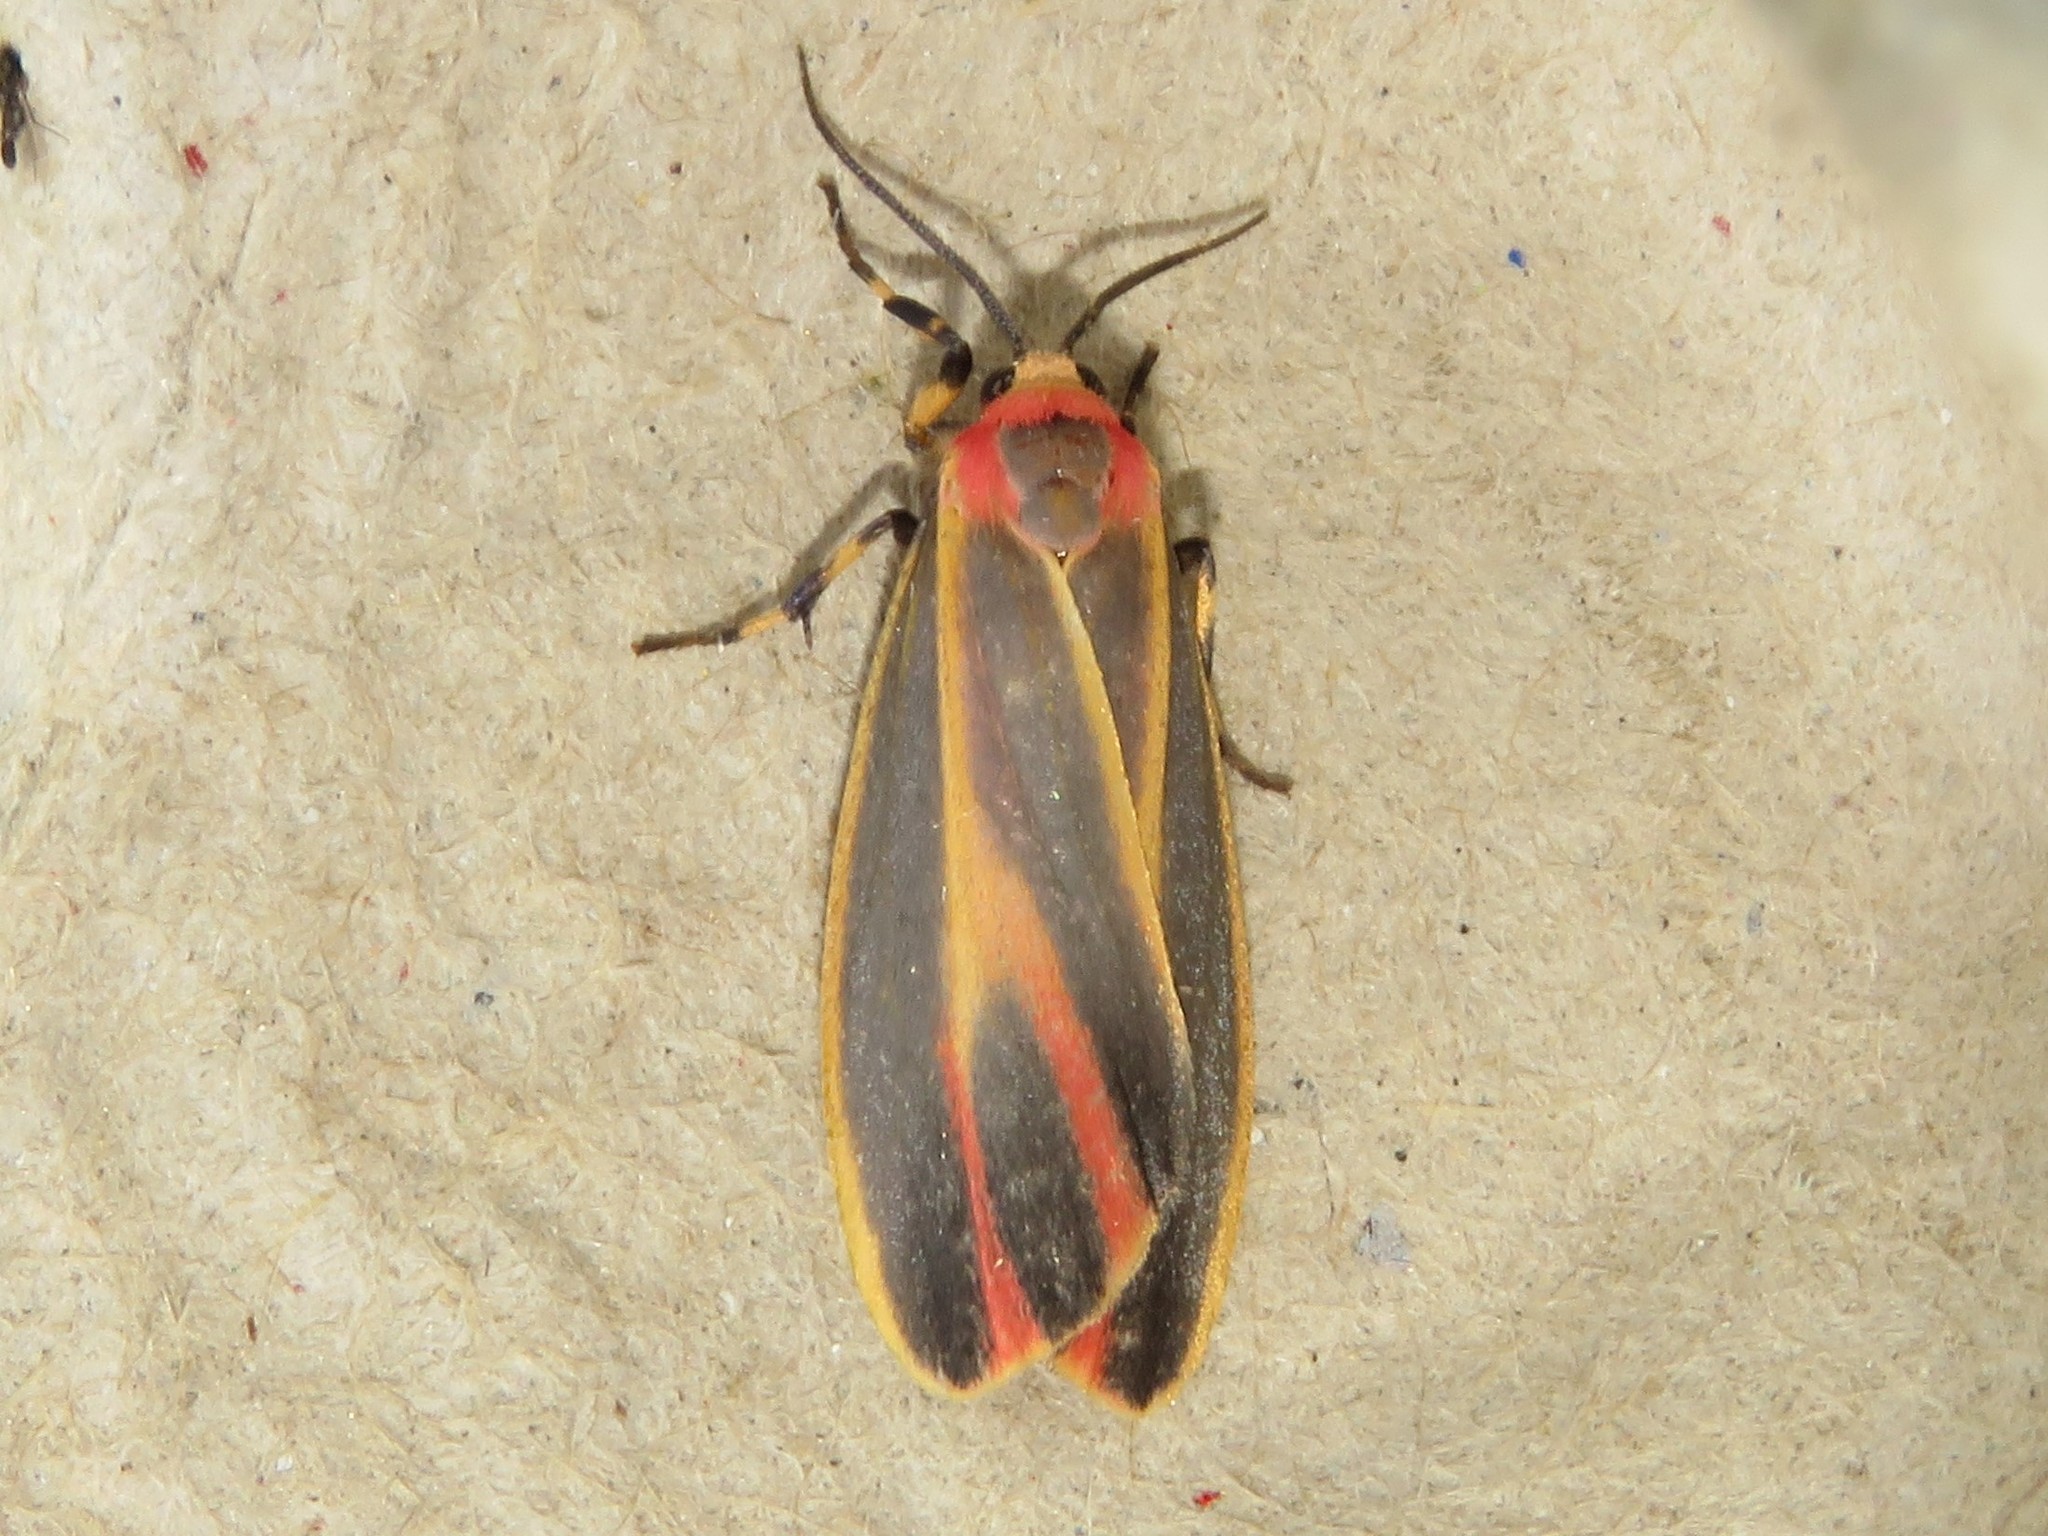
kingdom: Animalia
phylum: Arthropoda
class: Insecta
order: Lepidoptera
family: Erebidae
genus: Hypoprepia
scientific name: Hypoprepia fucosa
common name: Painted lichen moth
